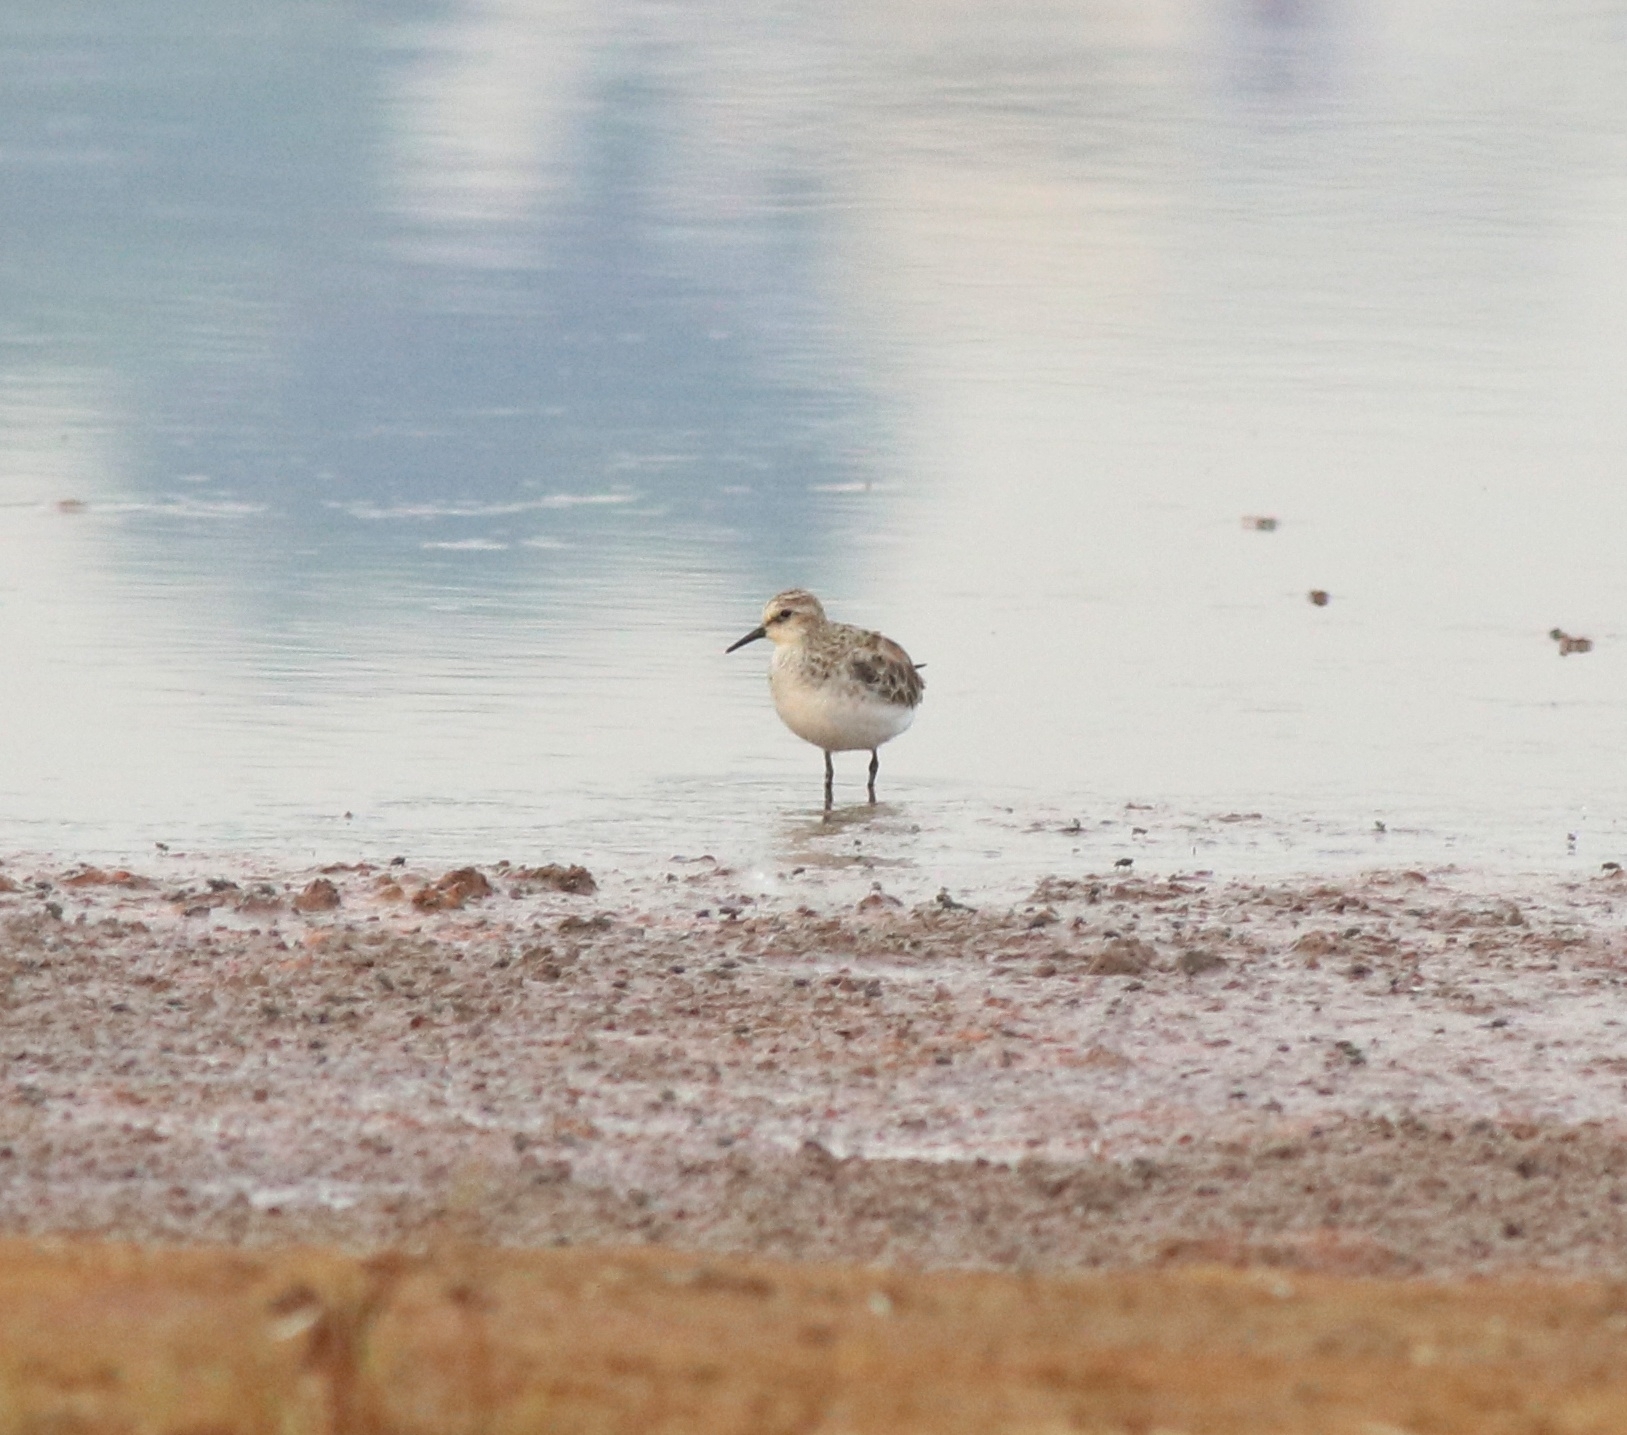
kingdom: Animalia
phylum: Chordata
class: Aves
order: Charadriiformes
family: Scolopacidae
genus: Calidris
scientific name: Calidris minuta
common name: Little stint
